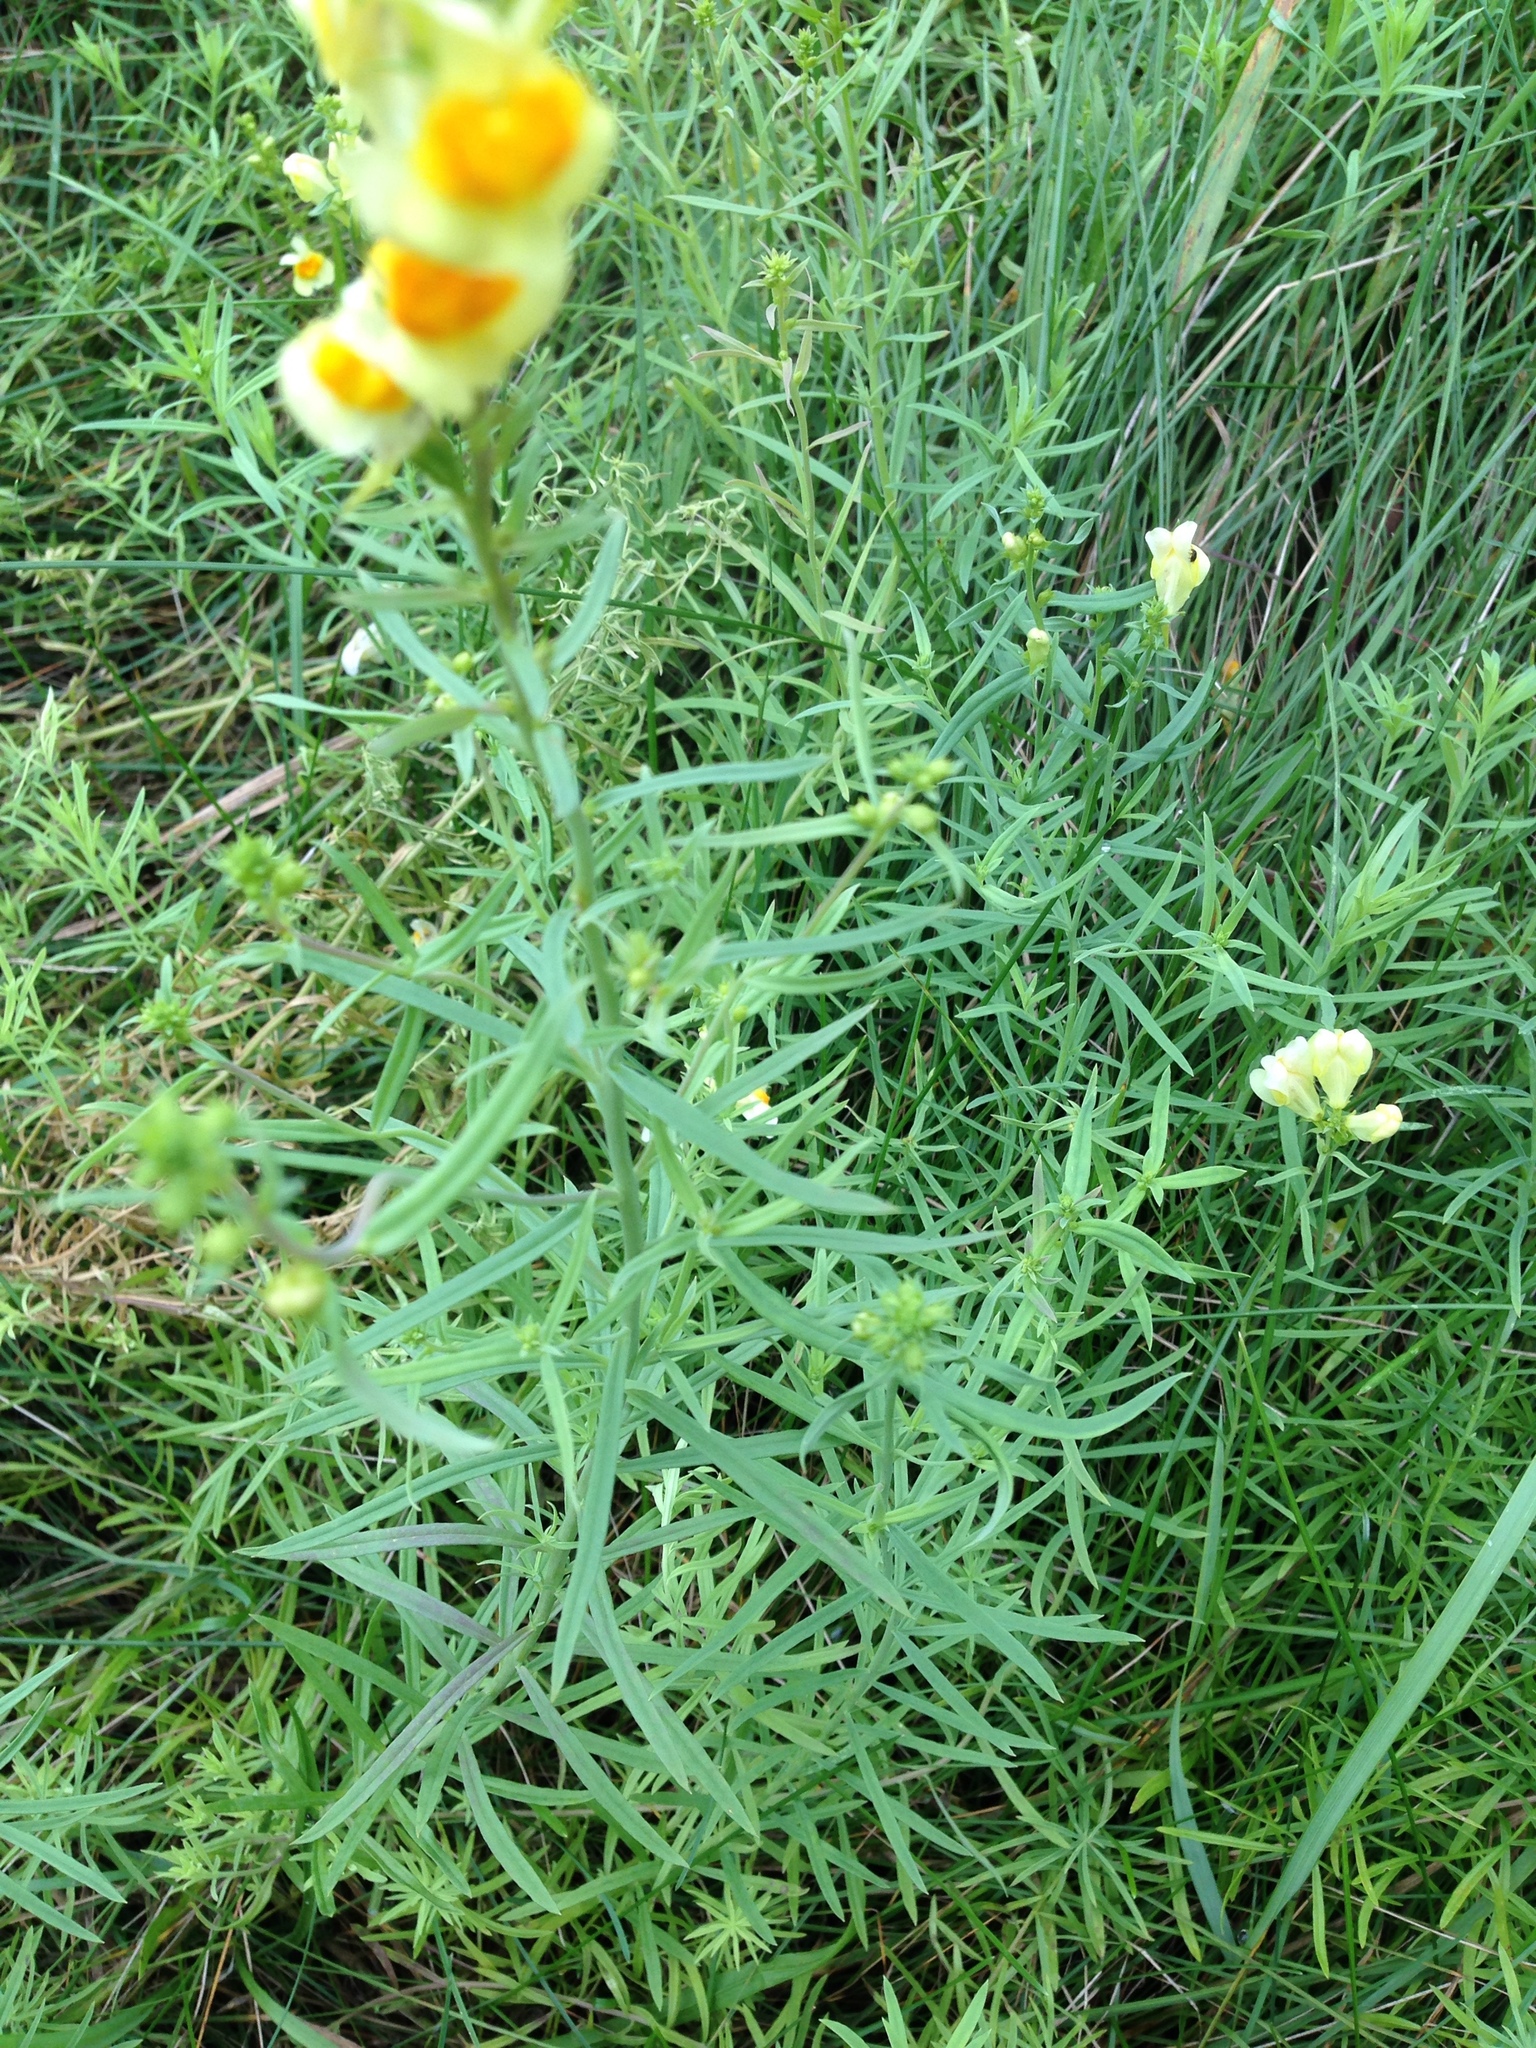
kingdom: Plantae
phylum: Tracheophyta
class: Magnoliopsida
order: Lamiales
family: Plantaginaceae
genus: Linaria
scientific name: Linaria vulgaris
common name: Butter and eggs
